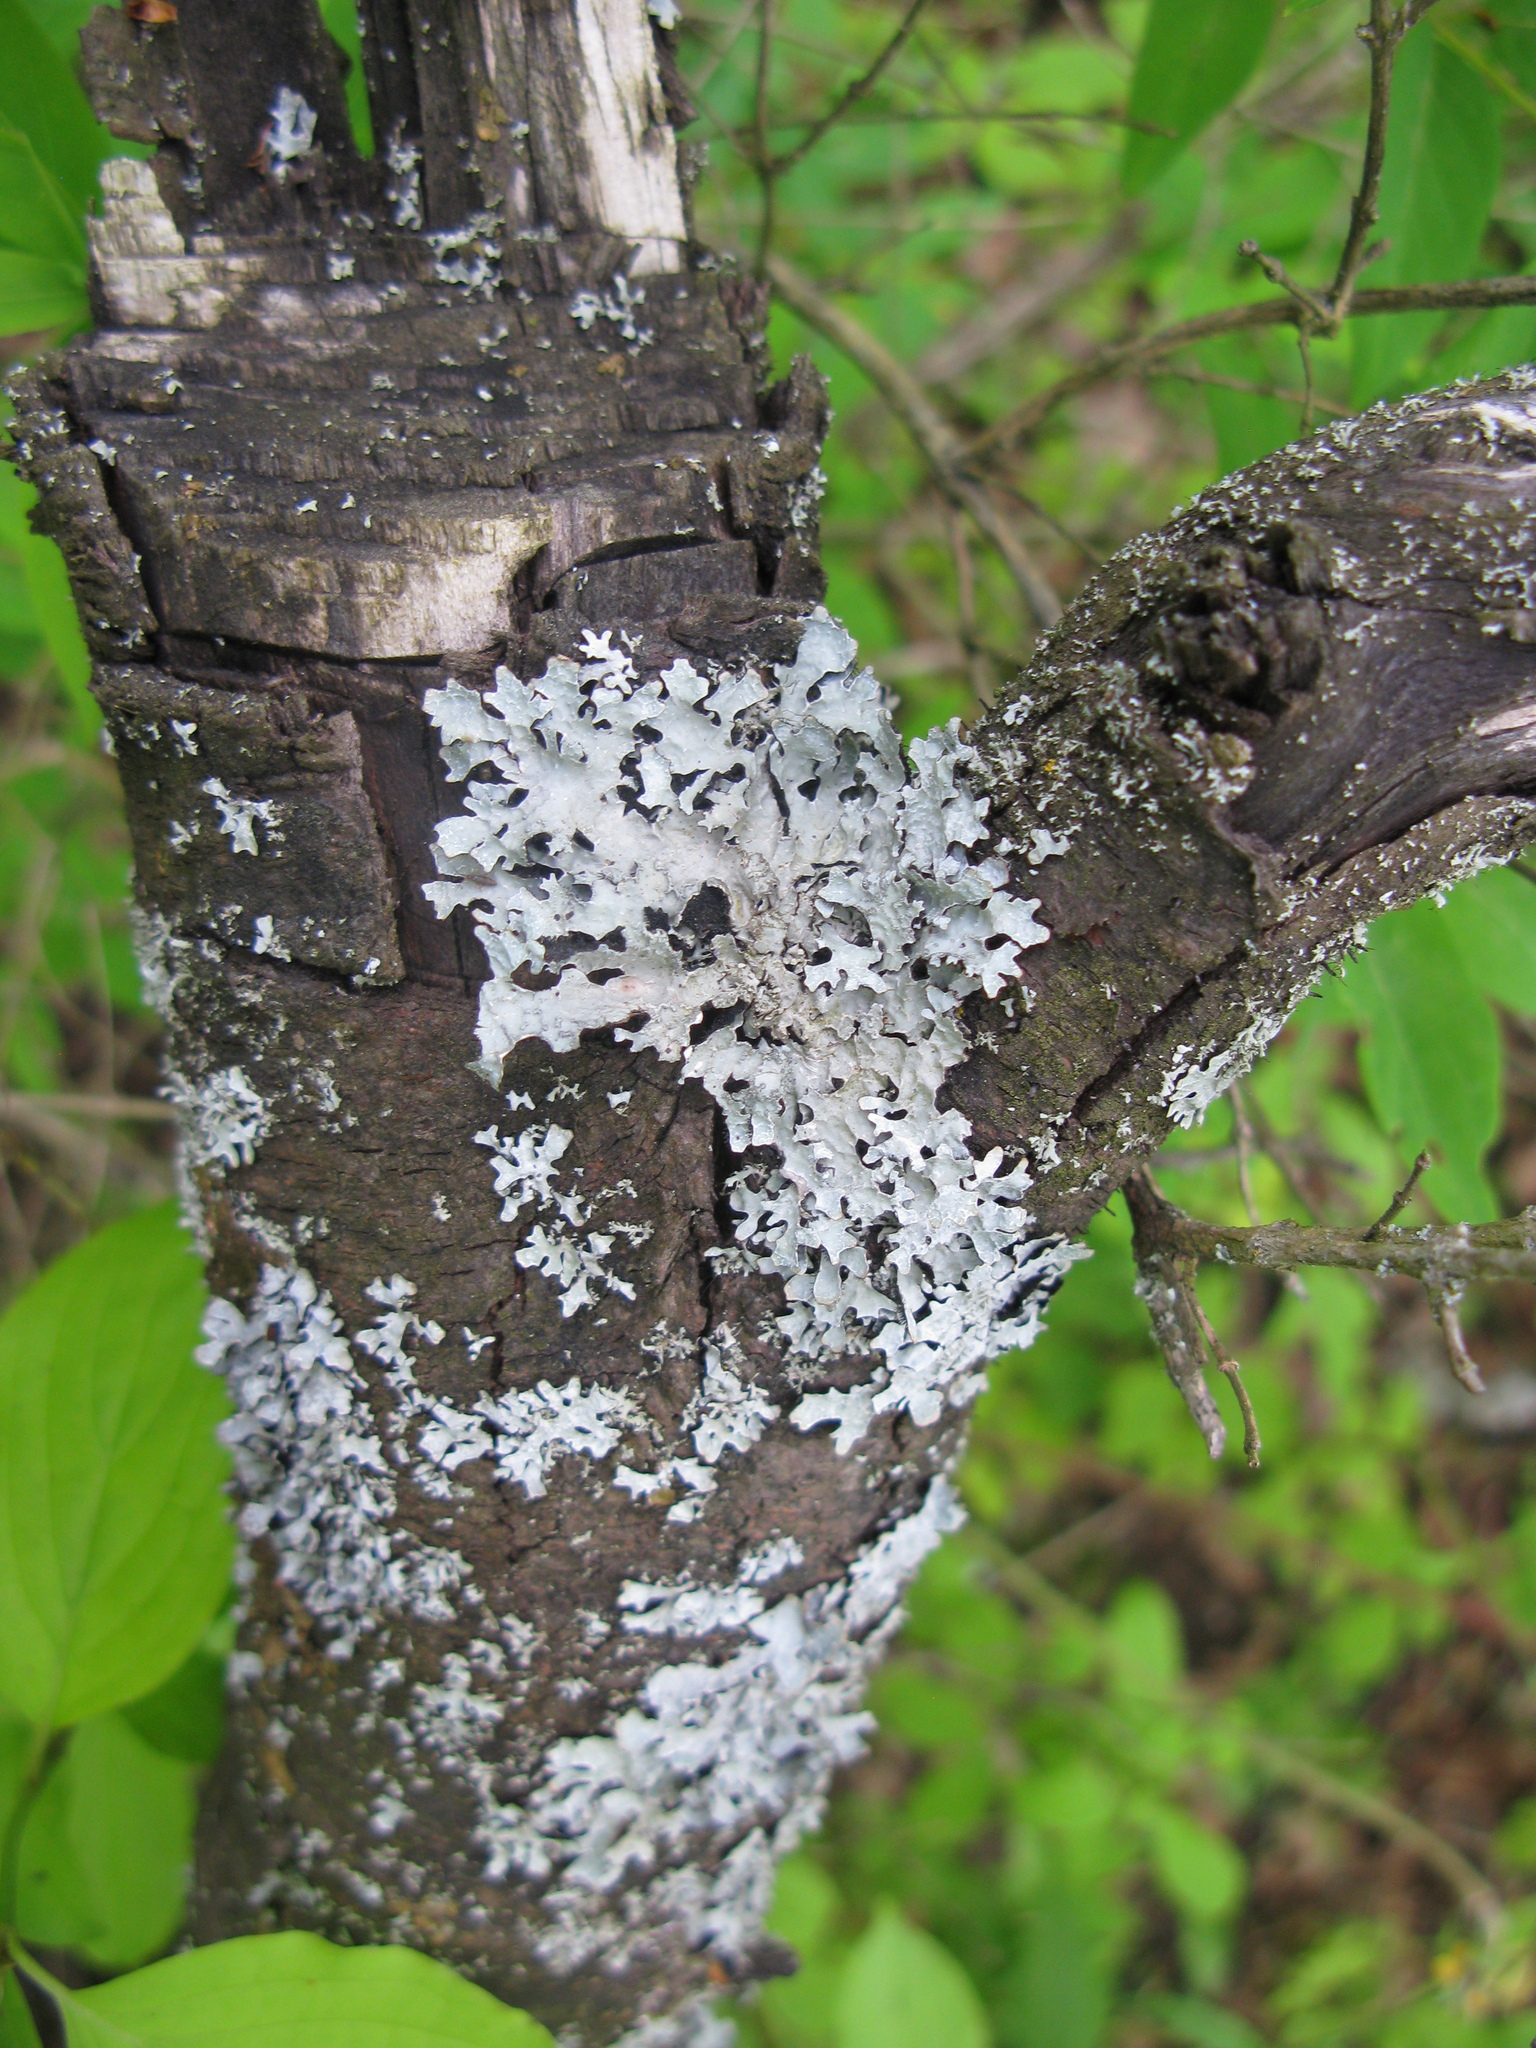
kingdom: Fungi
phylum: Ascomycota
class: Lecanoromycetes
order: Lecanorales
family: Parmeliaceae
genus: Parmelia
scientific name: Parmelia sulcata
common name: Netted shield lichen
